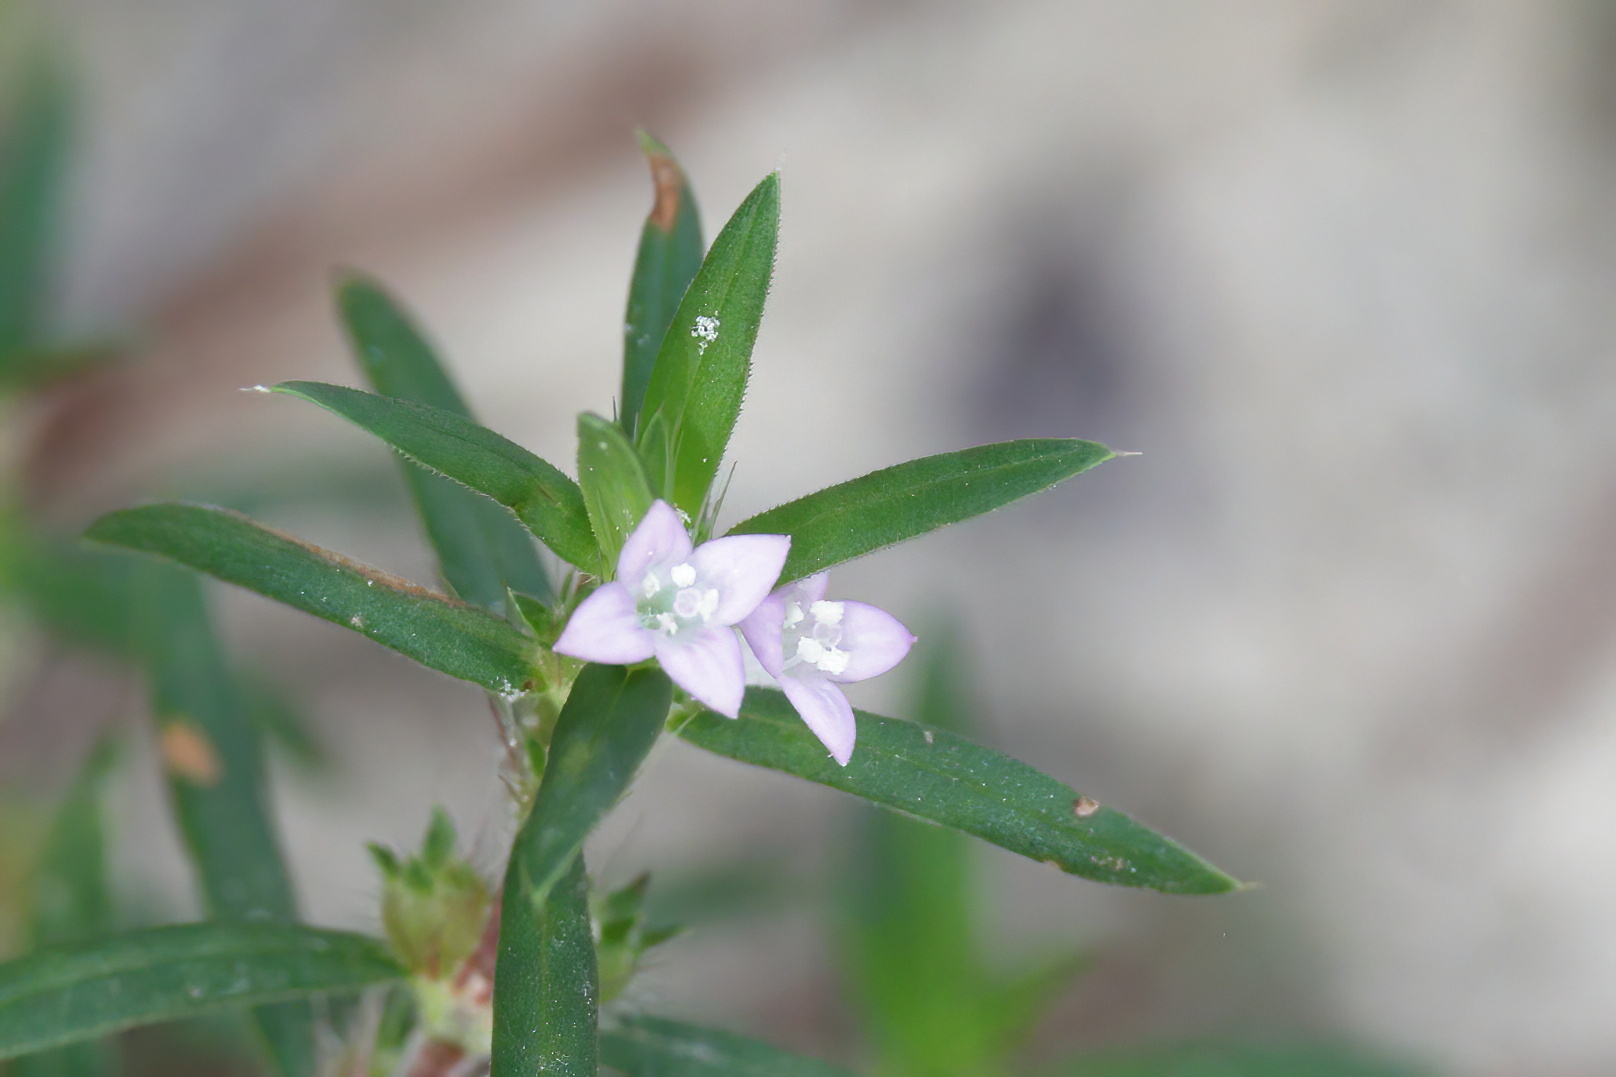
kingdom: Plantae
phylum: Tracheophyta
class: Magnoliopsida
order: Gentianales
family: Rubiaceae
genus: Hexasepalum
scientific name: Hexasepalum teres
